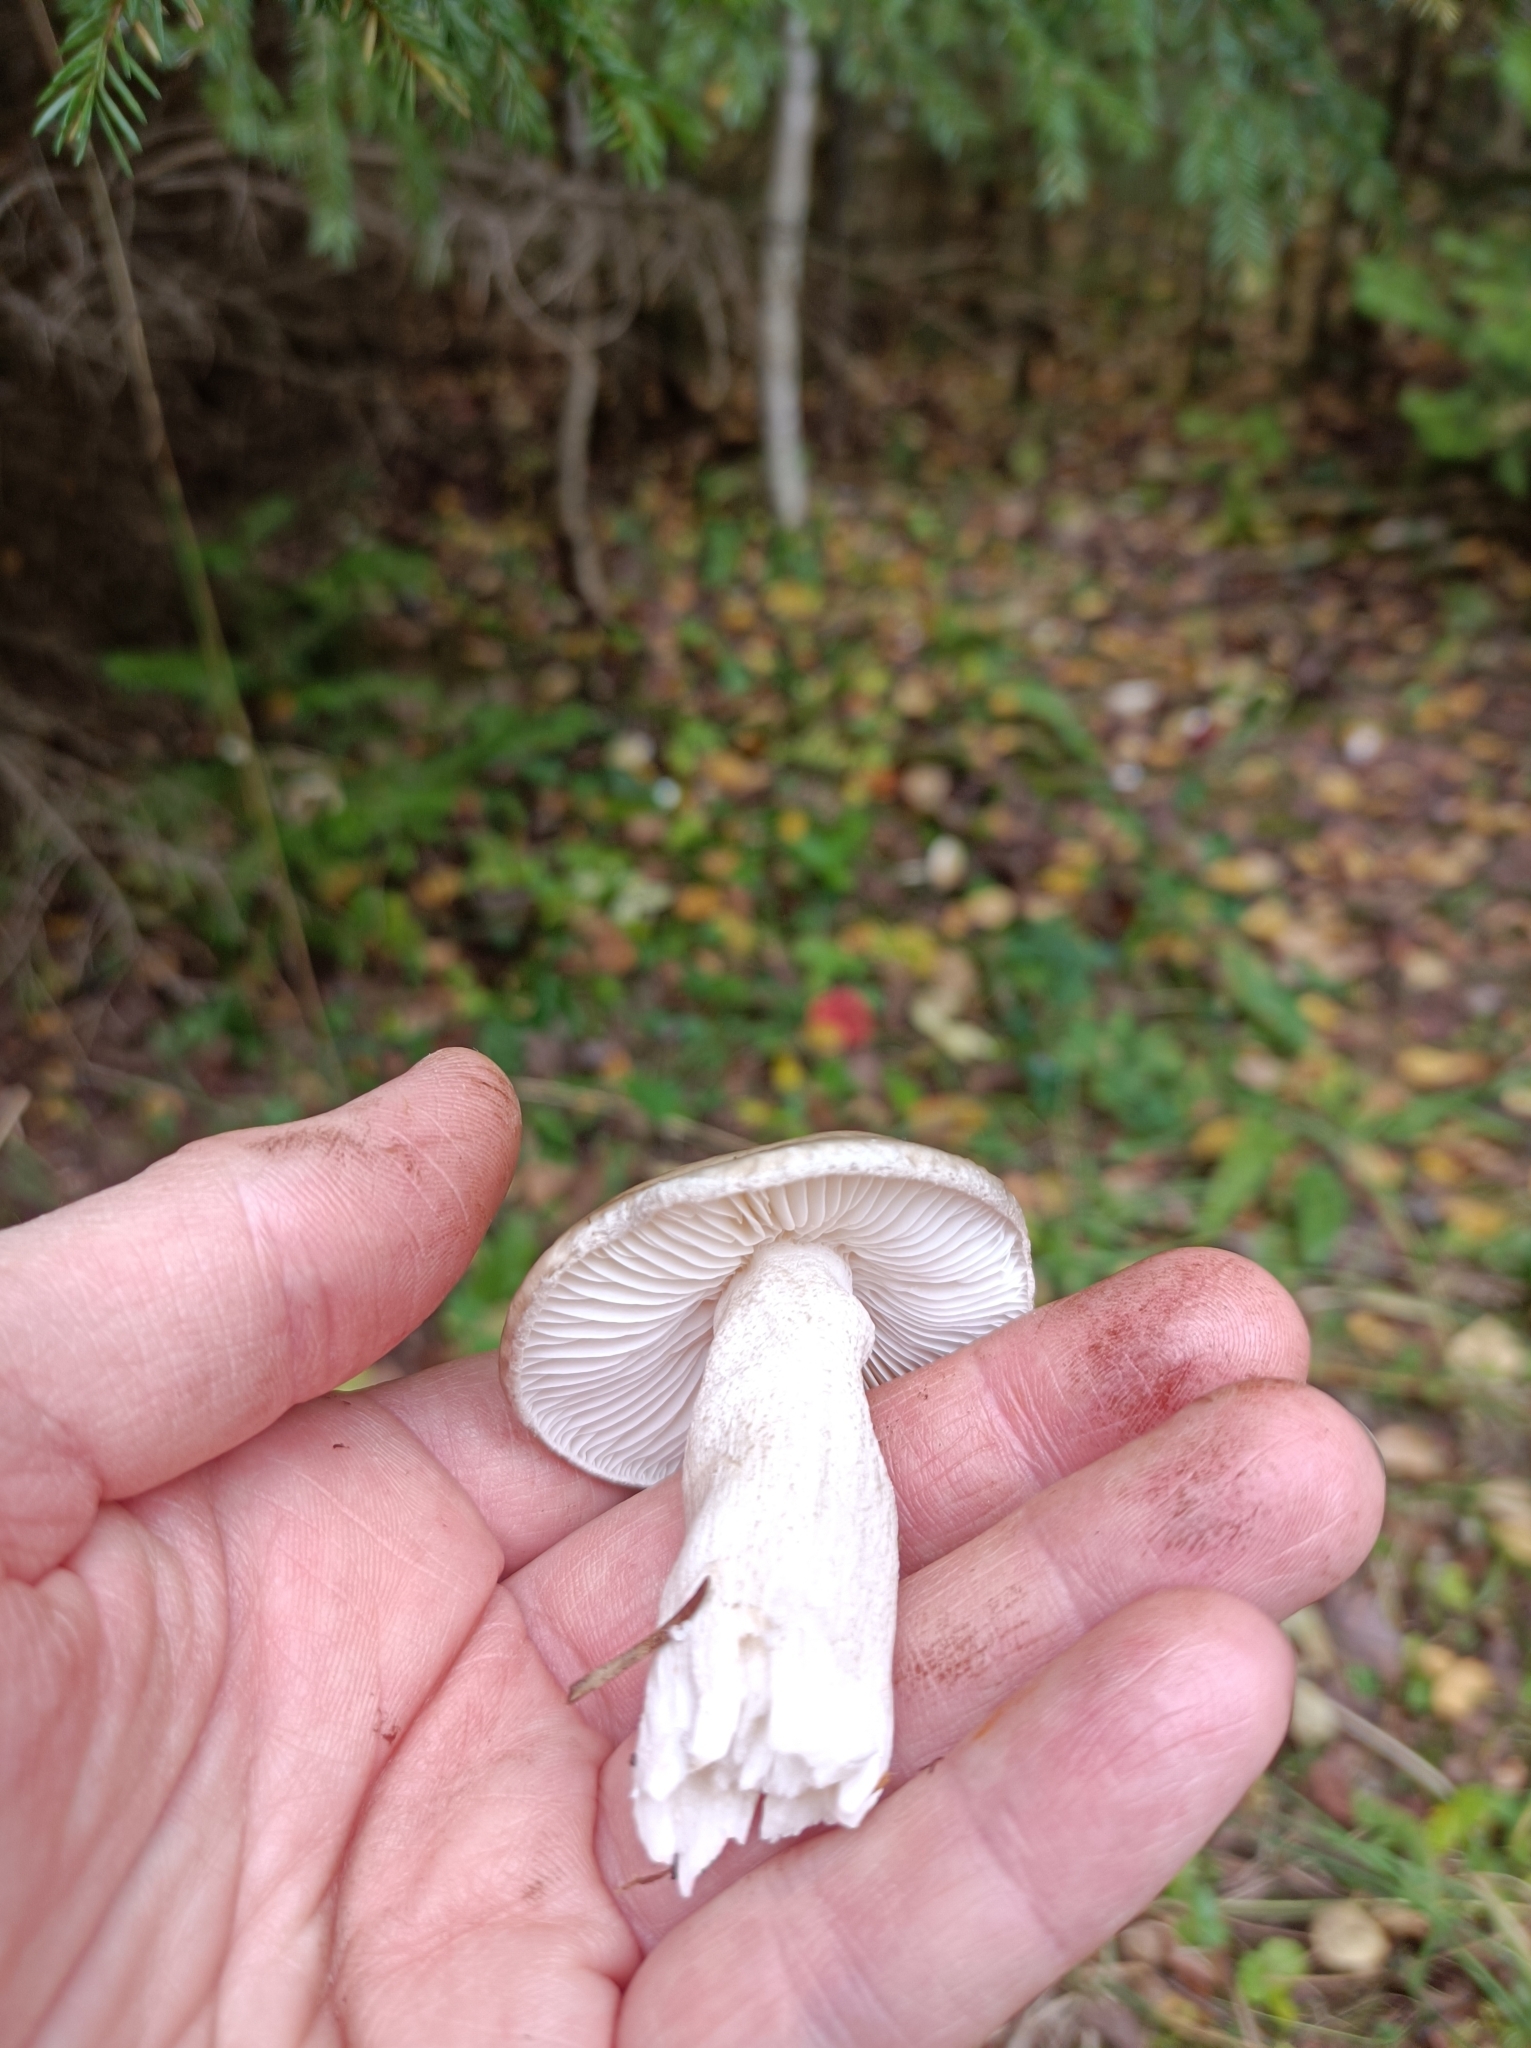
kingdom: Fungi
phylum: Basidiomycota
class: Agaricomycetes
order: Agaricales
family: Lyophyllaceae
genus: Lyophyllum
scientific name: Lyophyllum decastes
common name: Clustered domecap
